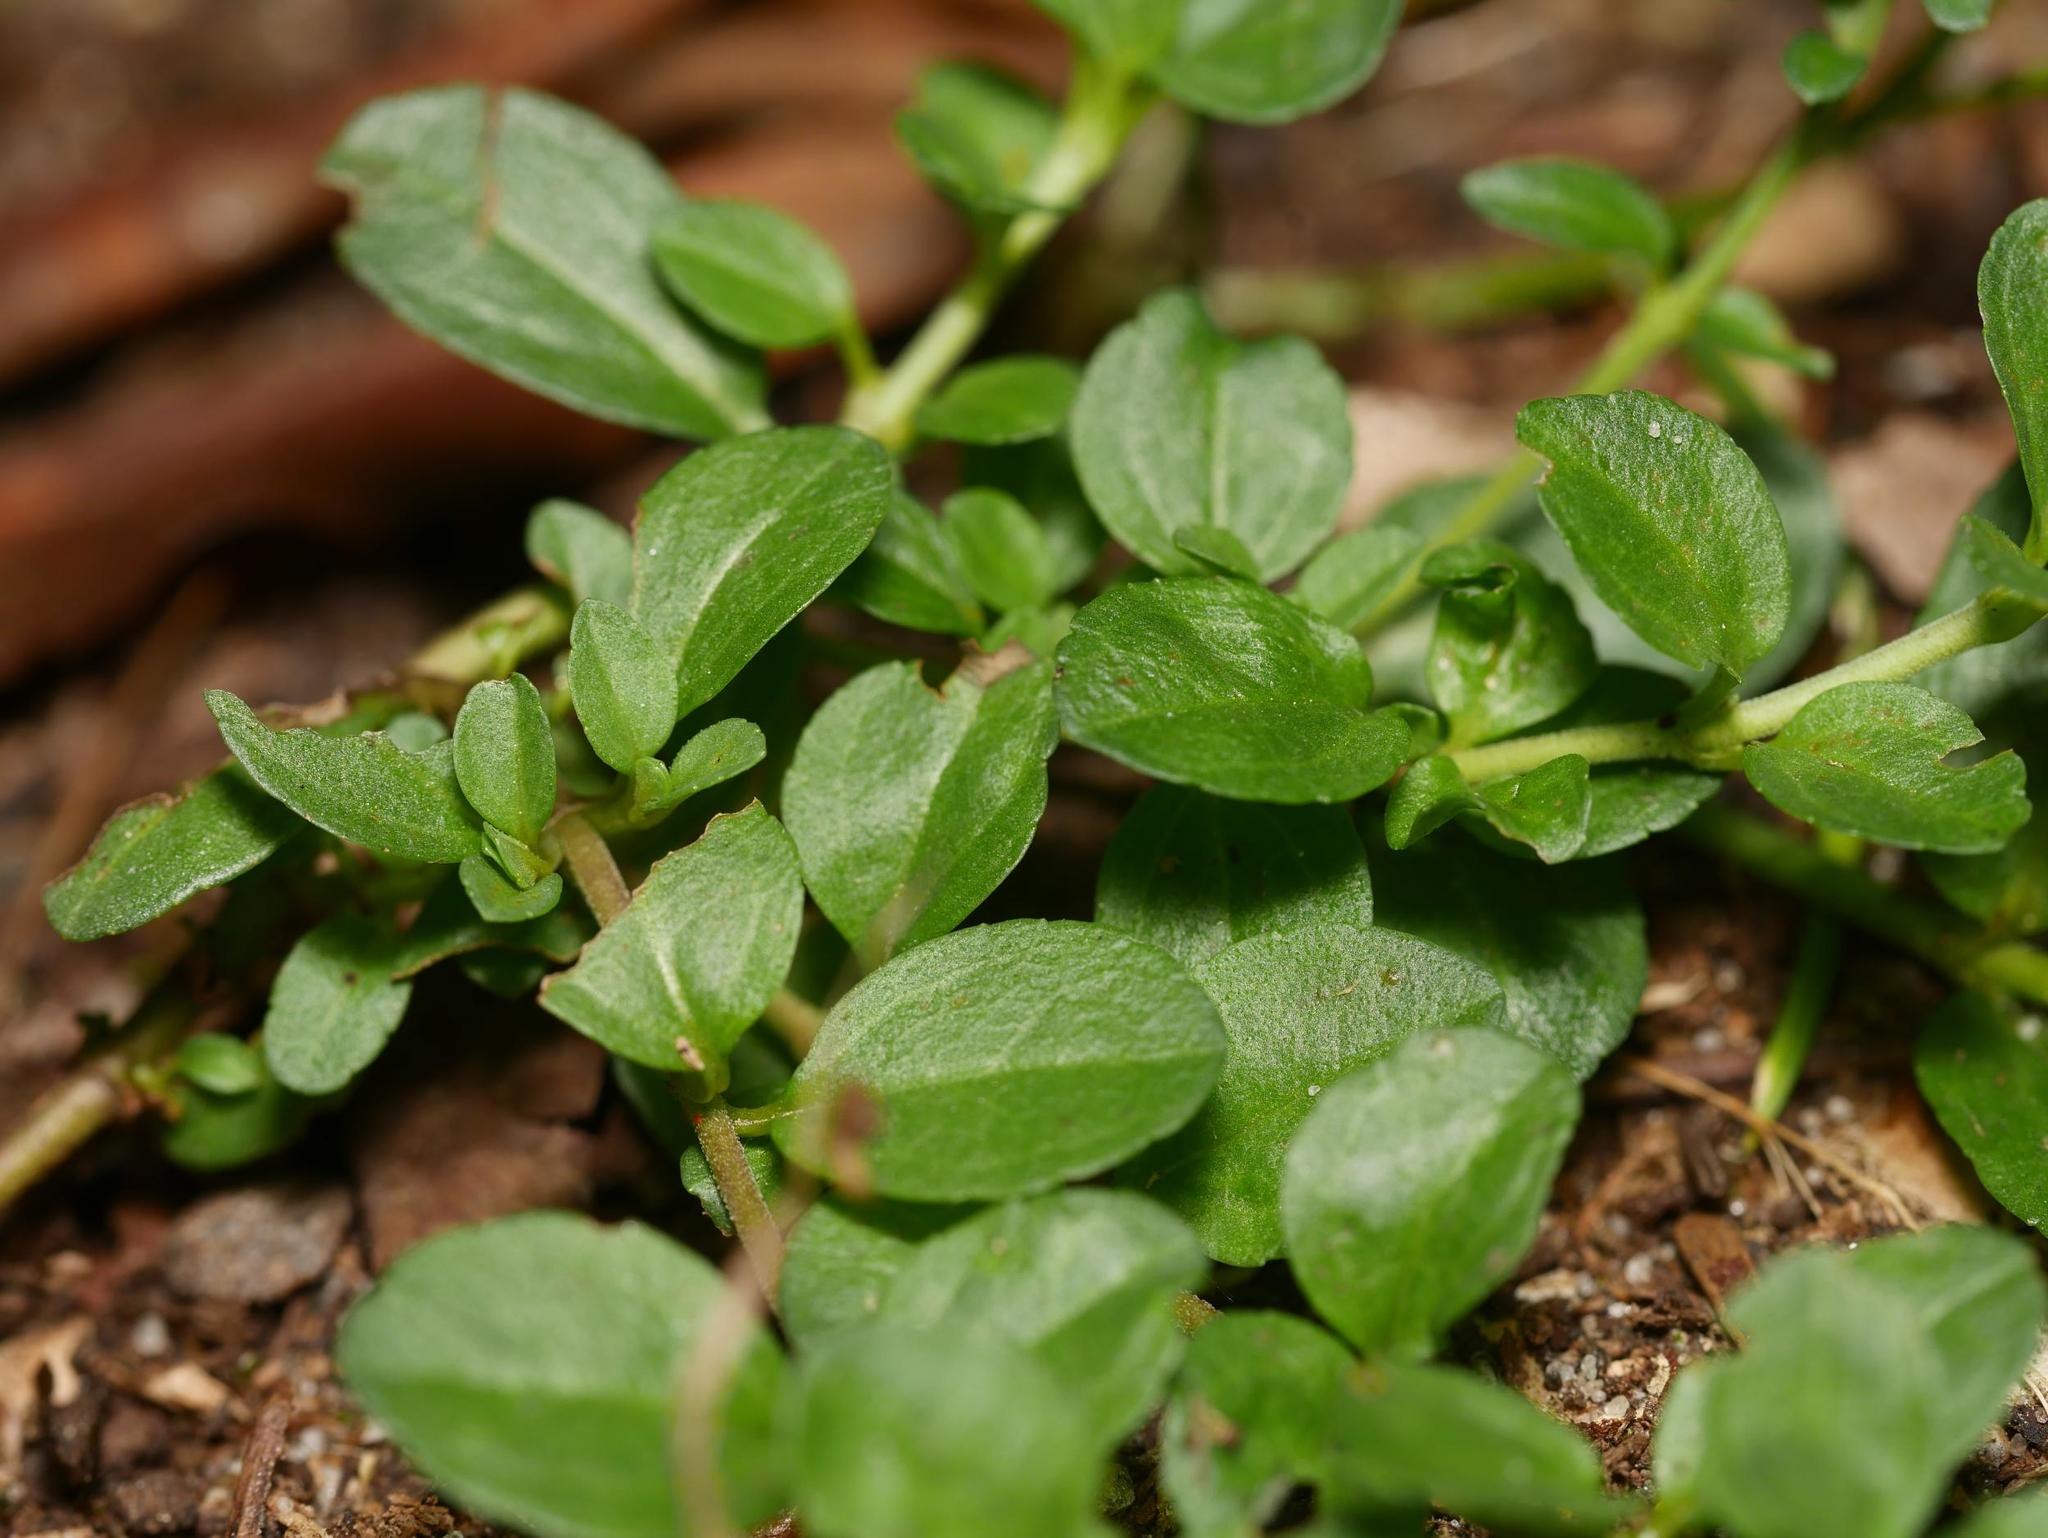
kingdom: Plantae
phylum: Tracheophyta
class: Magnoliopsida
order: Lamiales
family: Plantaginaceae
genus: Veronica
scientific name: Veronica serpyllifolia
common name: Thyme-leaved speedwell
